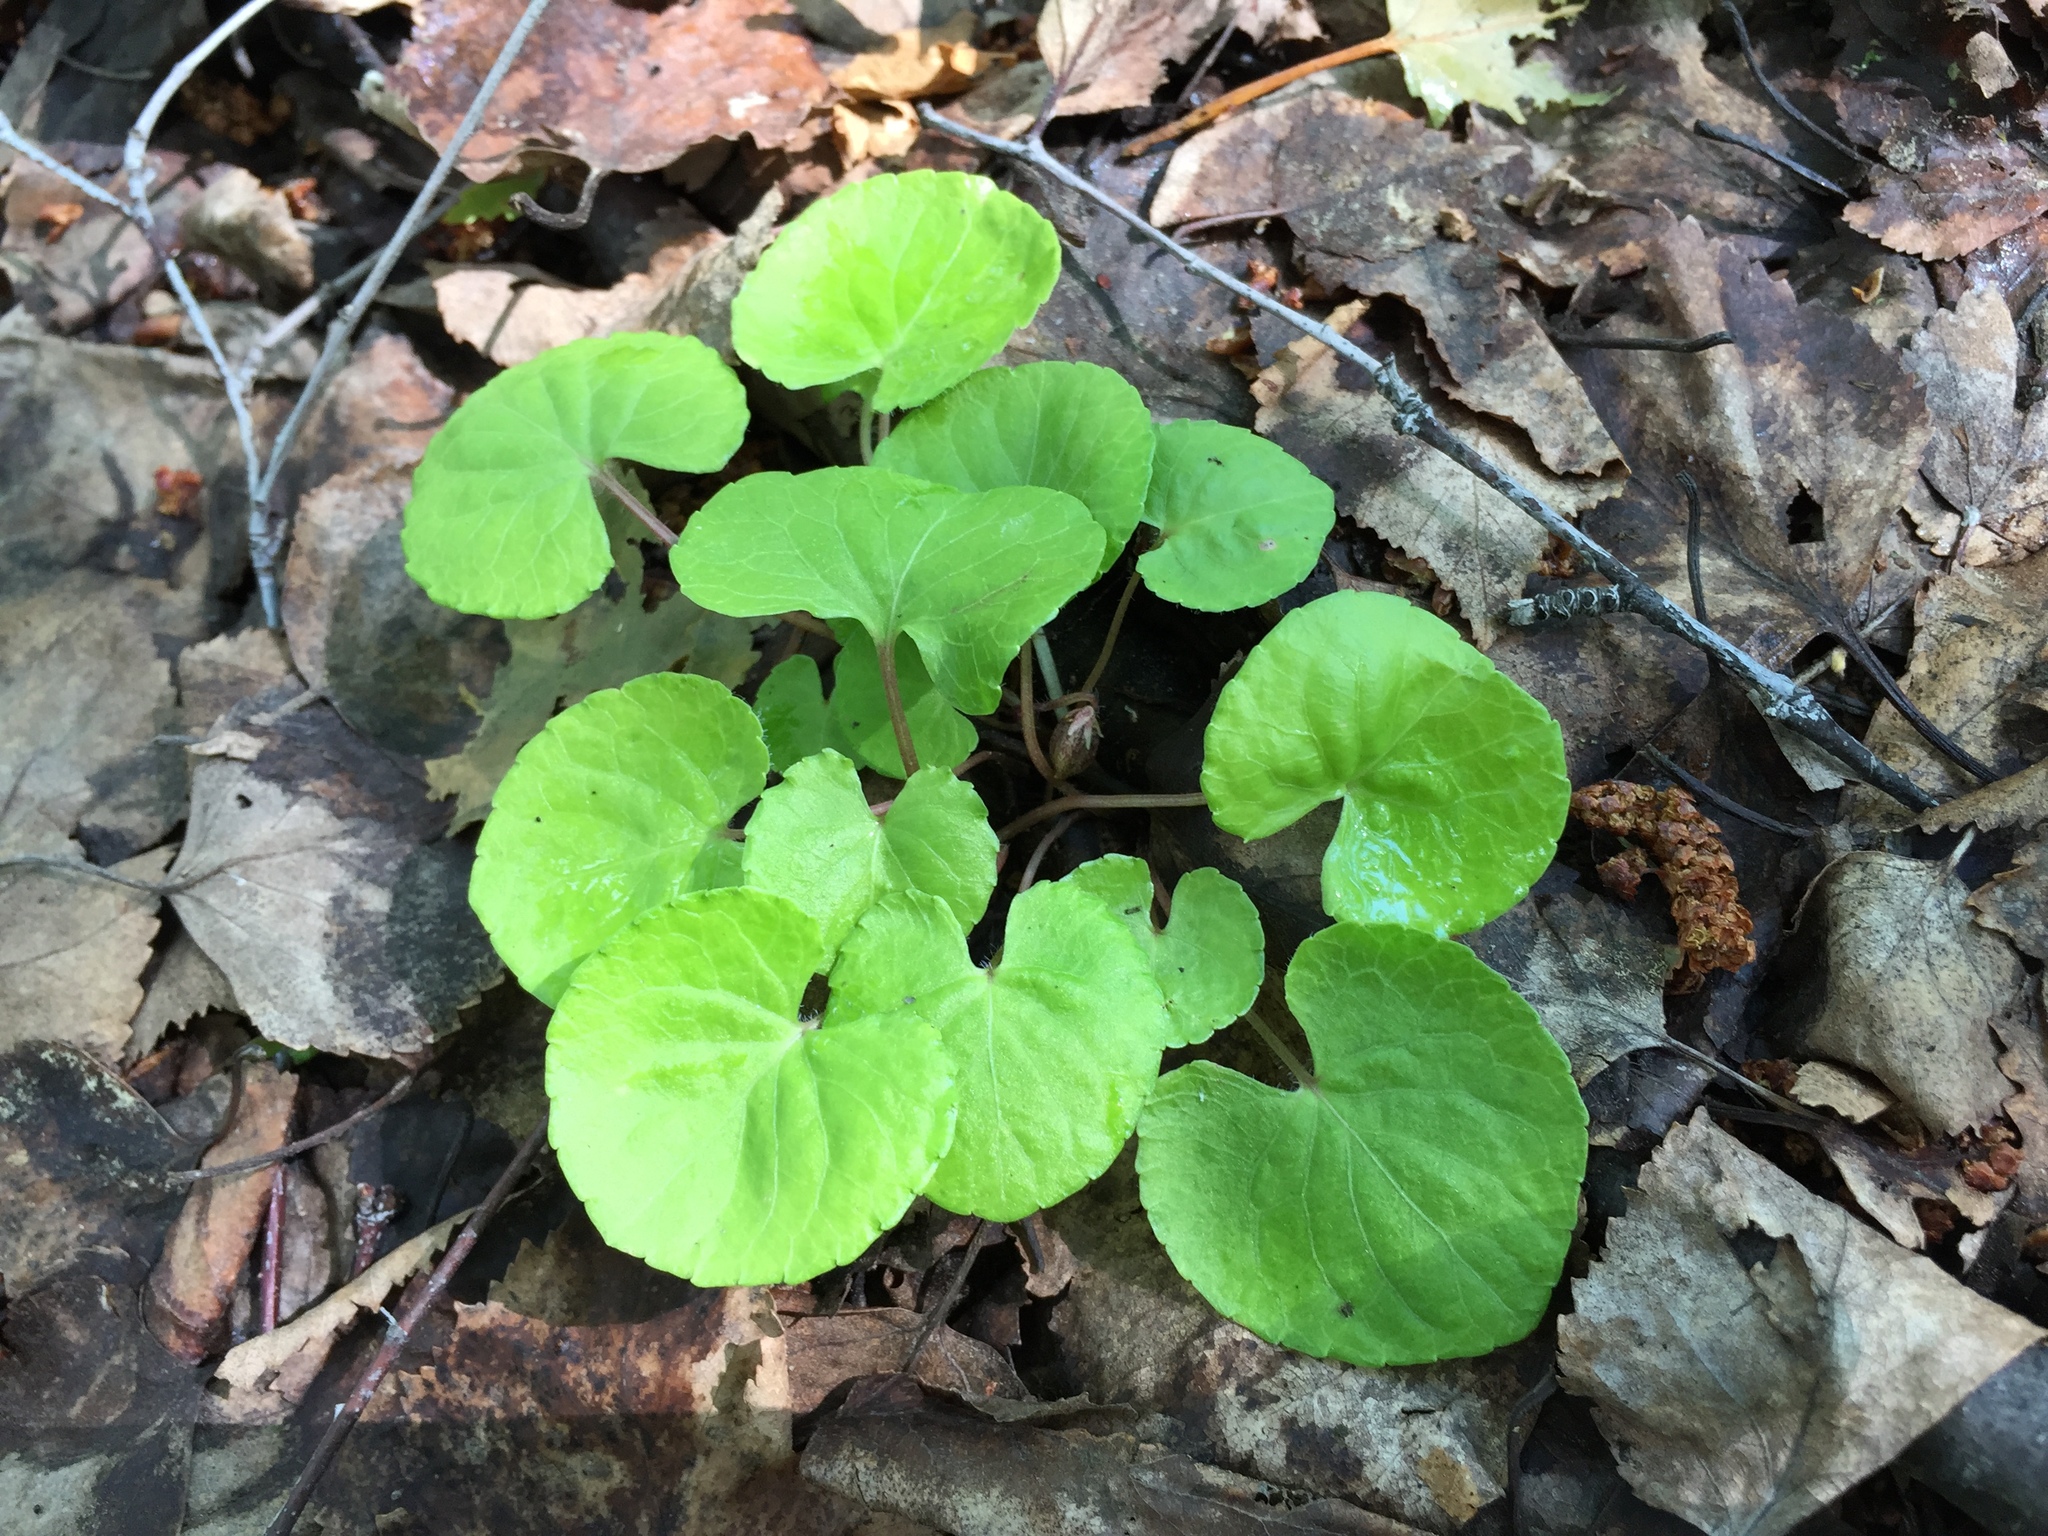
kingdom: Plantae
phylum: Tracheophyta
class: Magnoliopsida
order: Malpighiales
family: Violaceae
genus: Viola
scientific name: Viola renifolia
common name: Kidney-leaf violet
